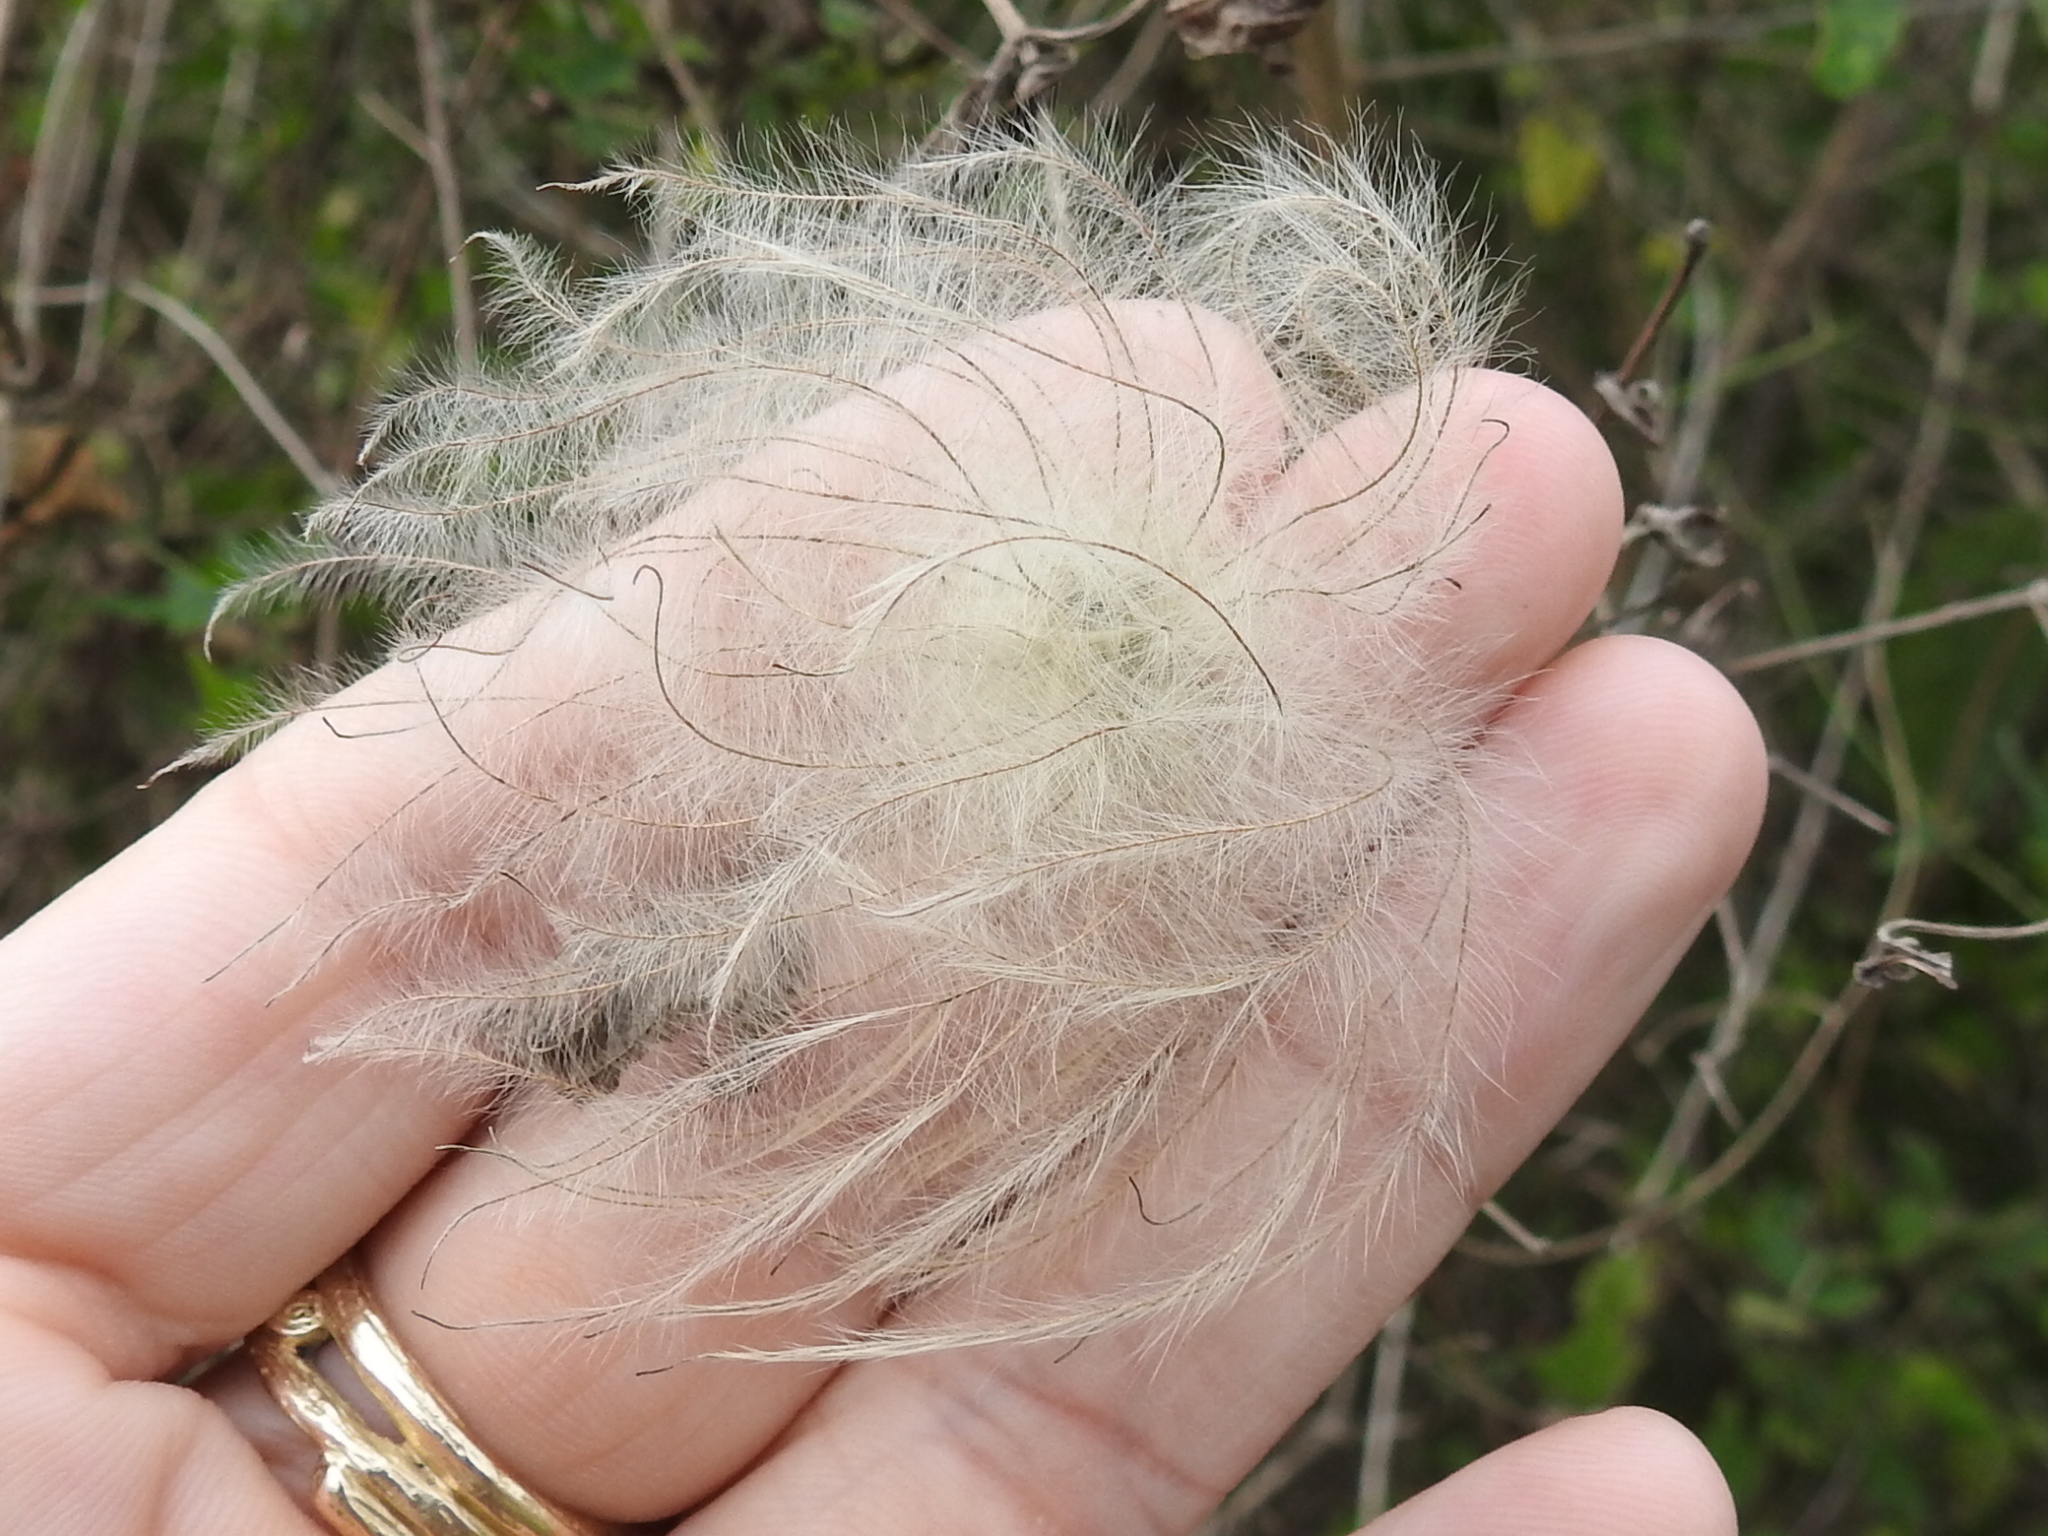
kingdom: Plantae
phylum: Tracheophyta
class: Magnoliopsida
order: Ranunculales
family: Ranunculaceae
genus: Clematis
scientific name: Clematis drummondii
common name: Texas virgin's bower
